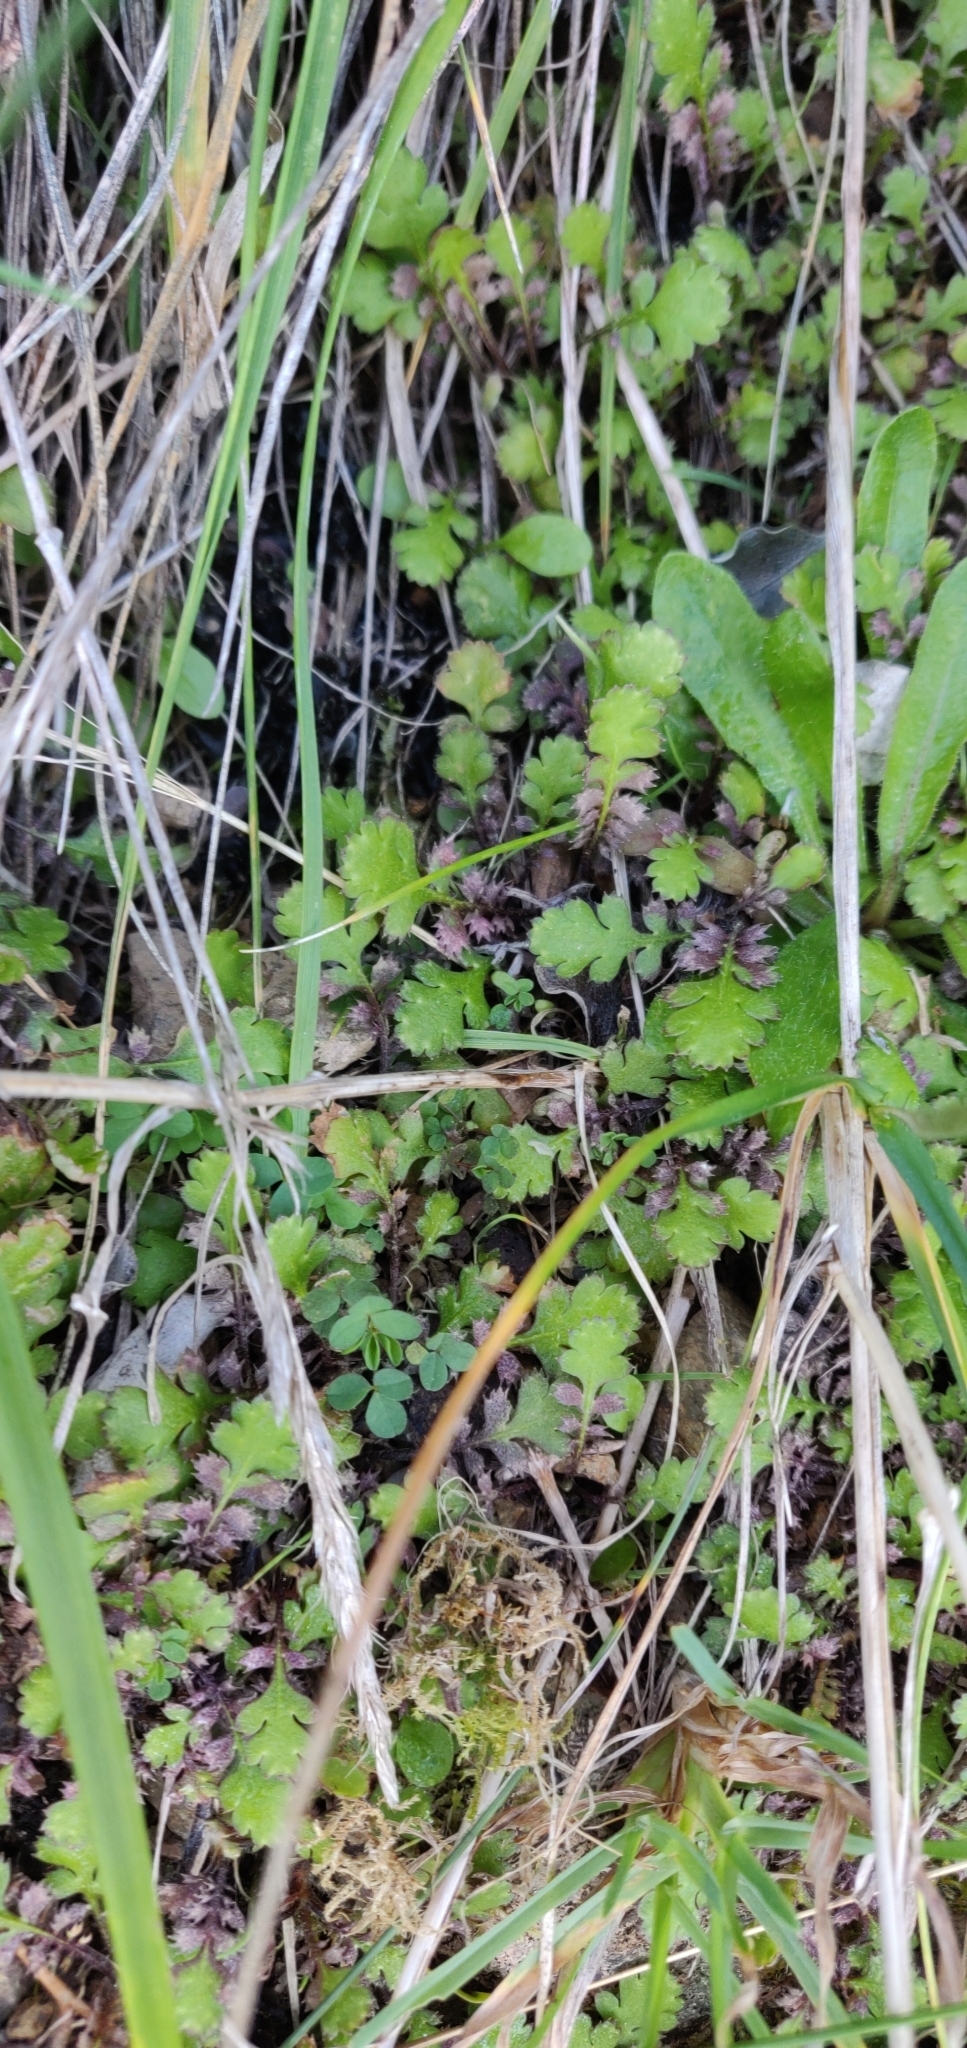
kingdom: Plantae
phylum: Tracheophyta
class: Magnoliopsida
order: Asterales
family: Asteraceae
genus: Leptinella
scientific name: Leptinella squalida
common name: New zealand brass-buttons
